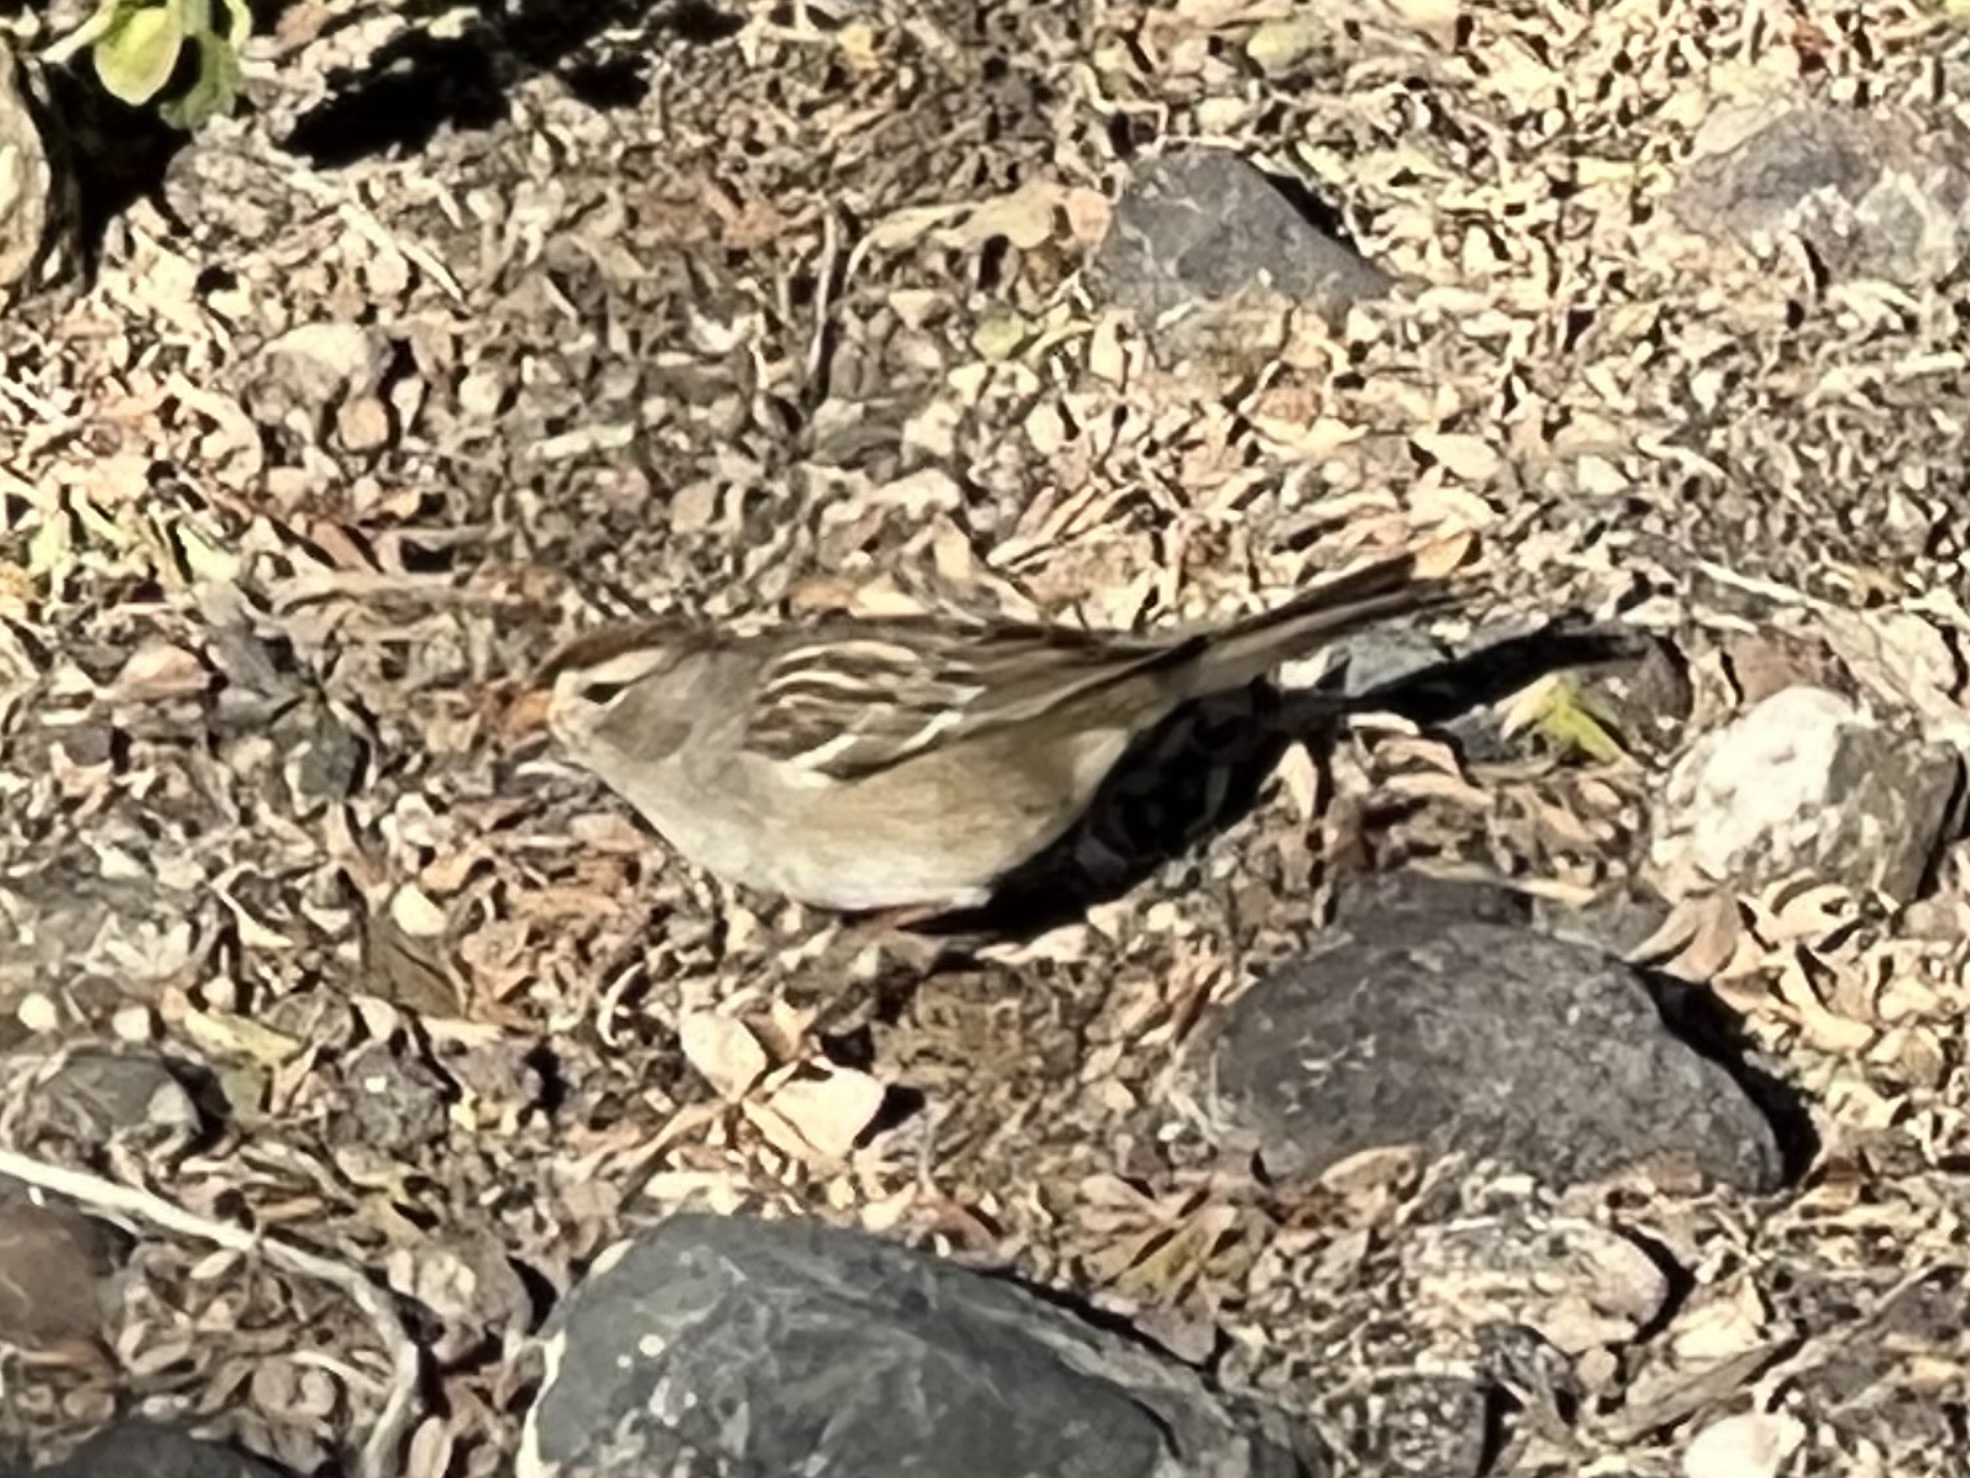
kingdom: Animalia
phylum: Chordata
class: Aves
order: Passeriformes
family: Passerellidae
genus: Zonotrichia
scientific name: Zonotrichia leucophrys
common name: White-crowned sparrow
